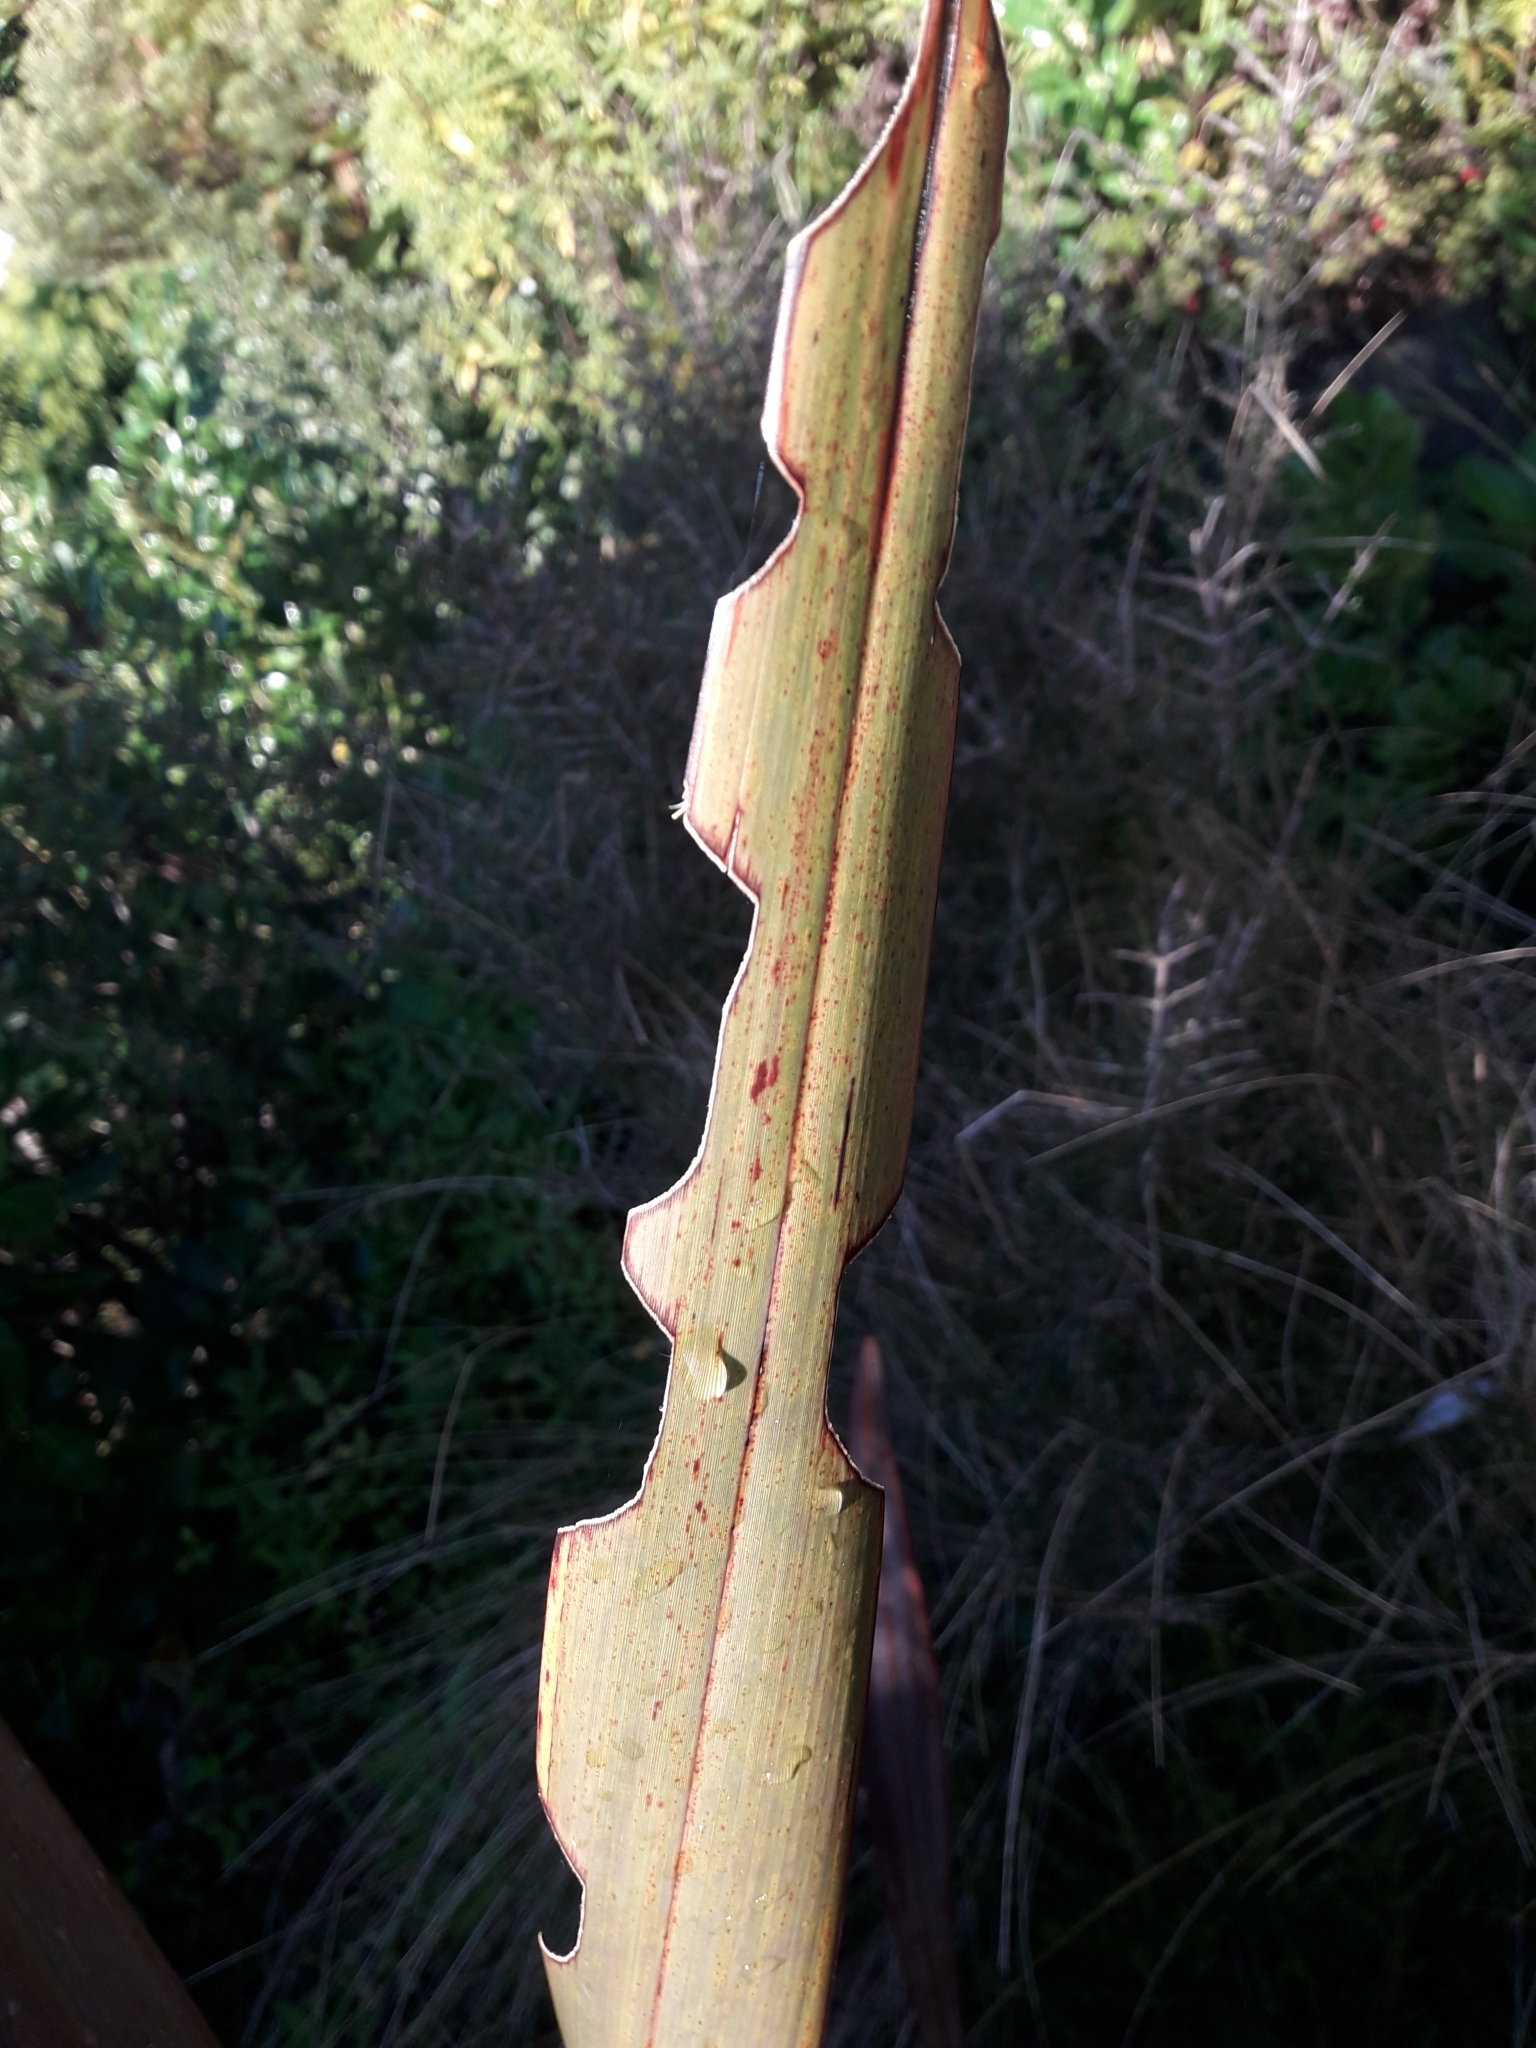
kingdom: Animalia
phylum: Arthropoda
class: Insecta
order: Lepidoptera
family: Noctuidae
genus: Ichneutica
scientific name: Ichneutica
